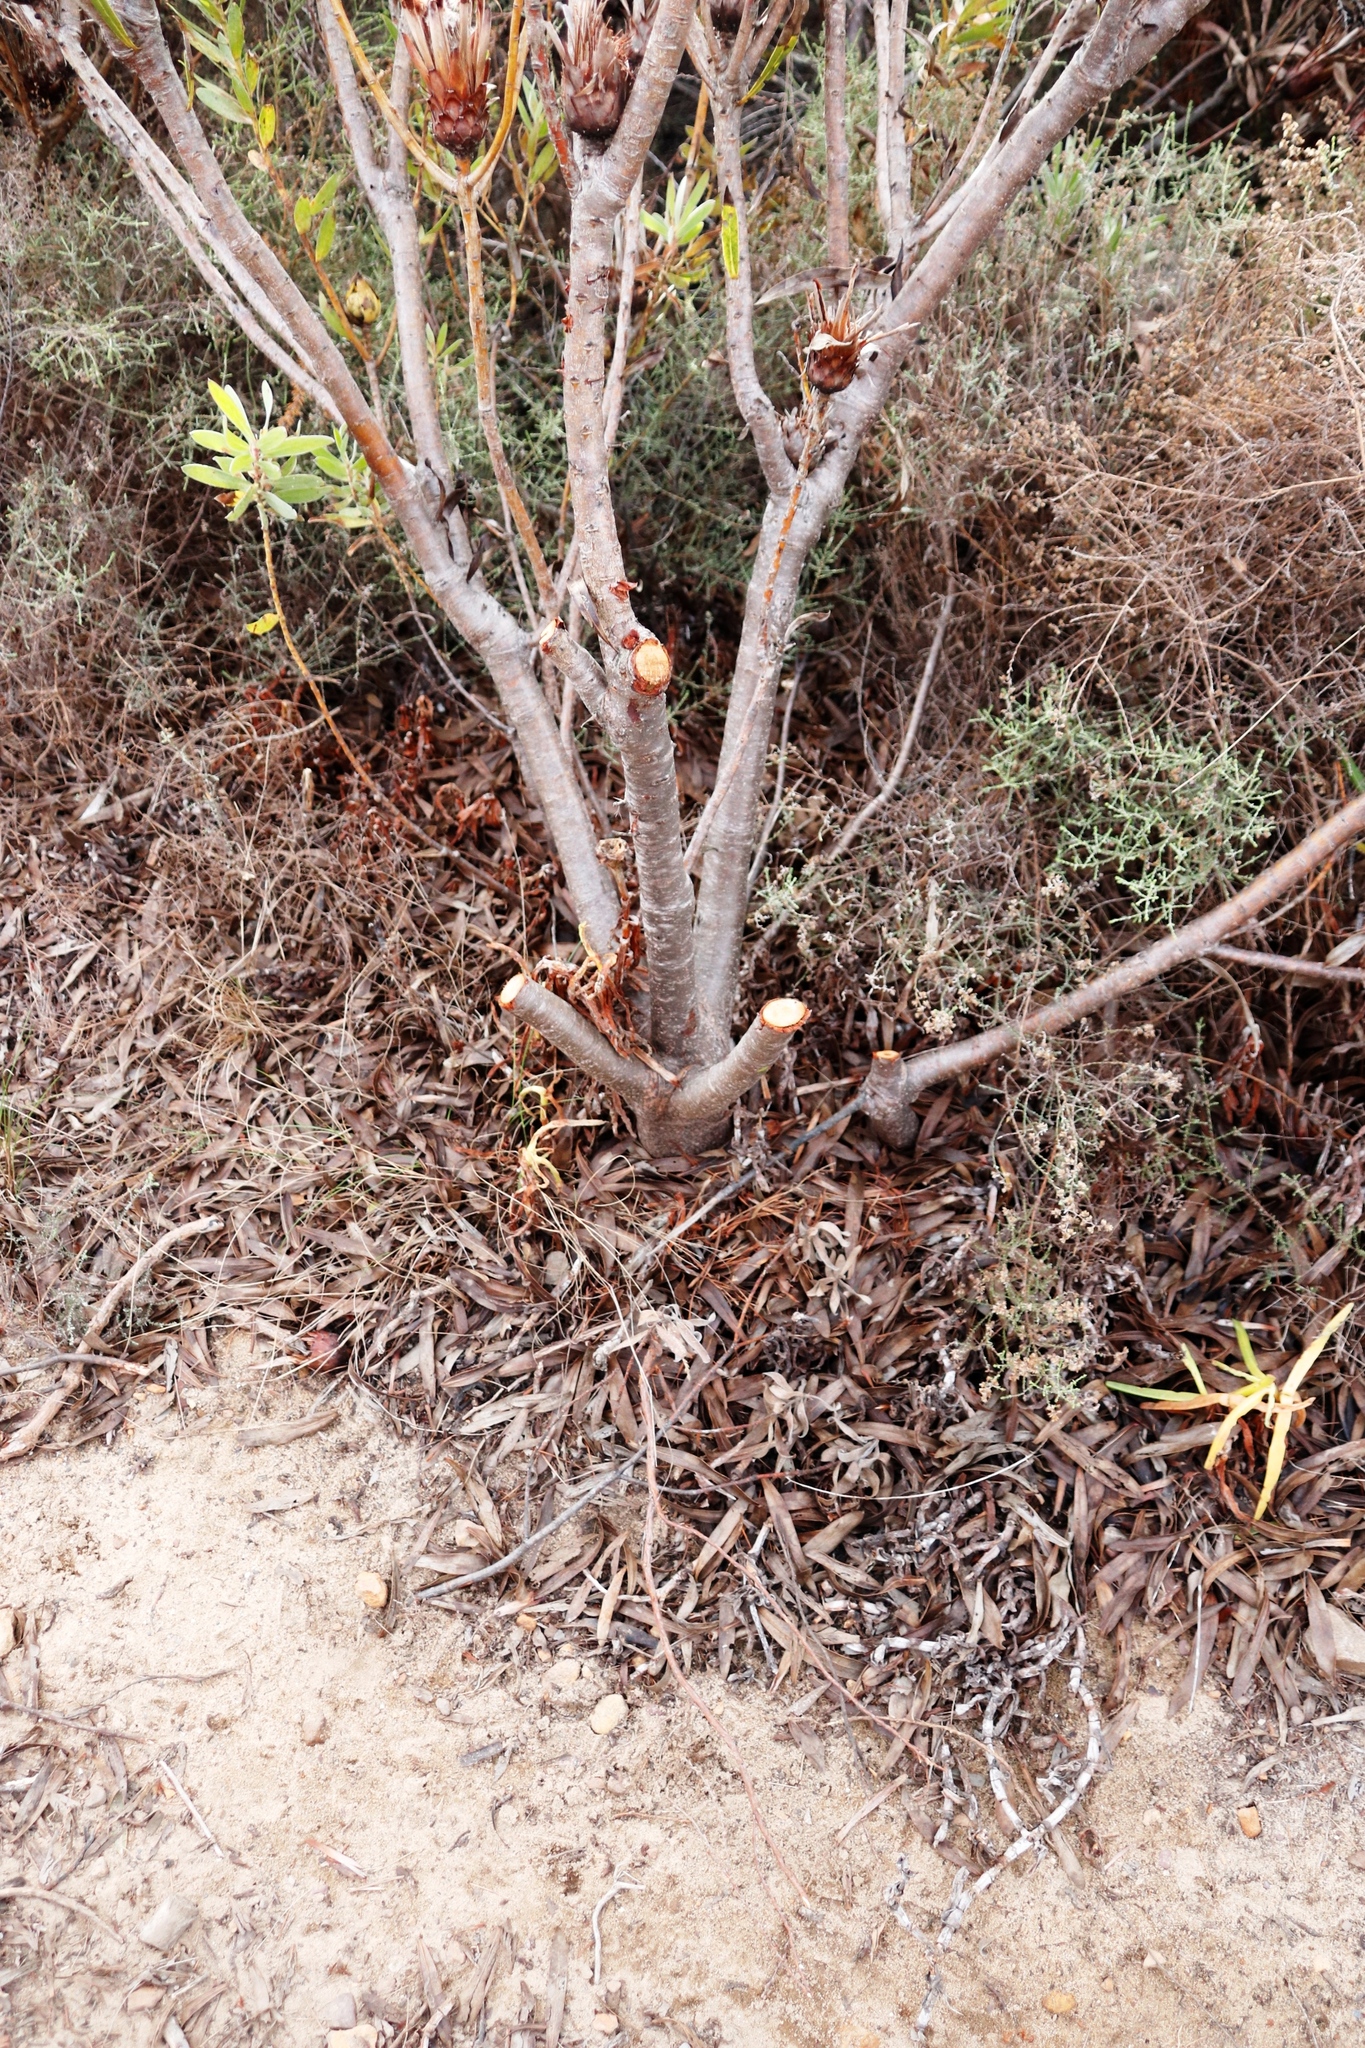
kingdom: Plantae
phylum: Tracheophyta
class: Magnoliopsida
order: Proteales
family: Proteaceae
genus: Protea
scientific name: Protea lepidocarpodendron
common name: Black-bearded protea
